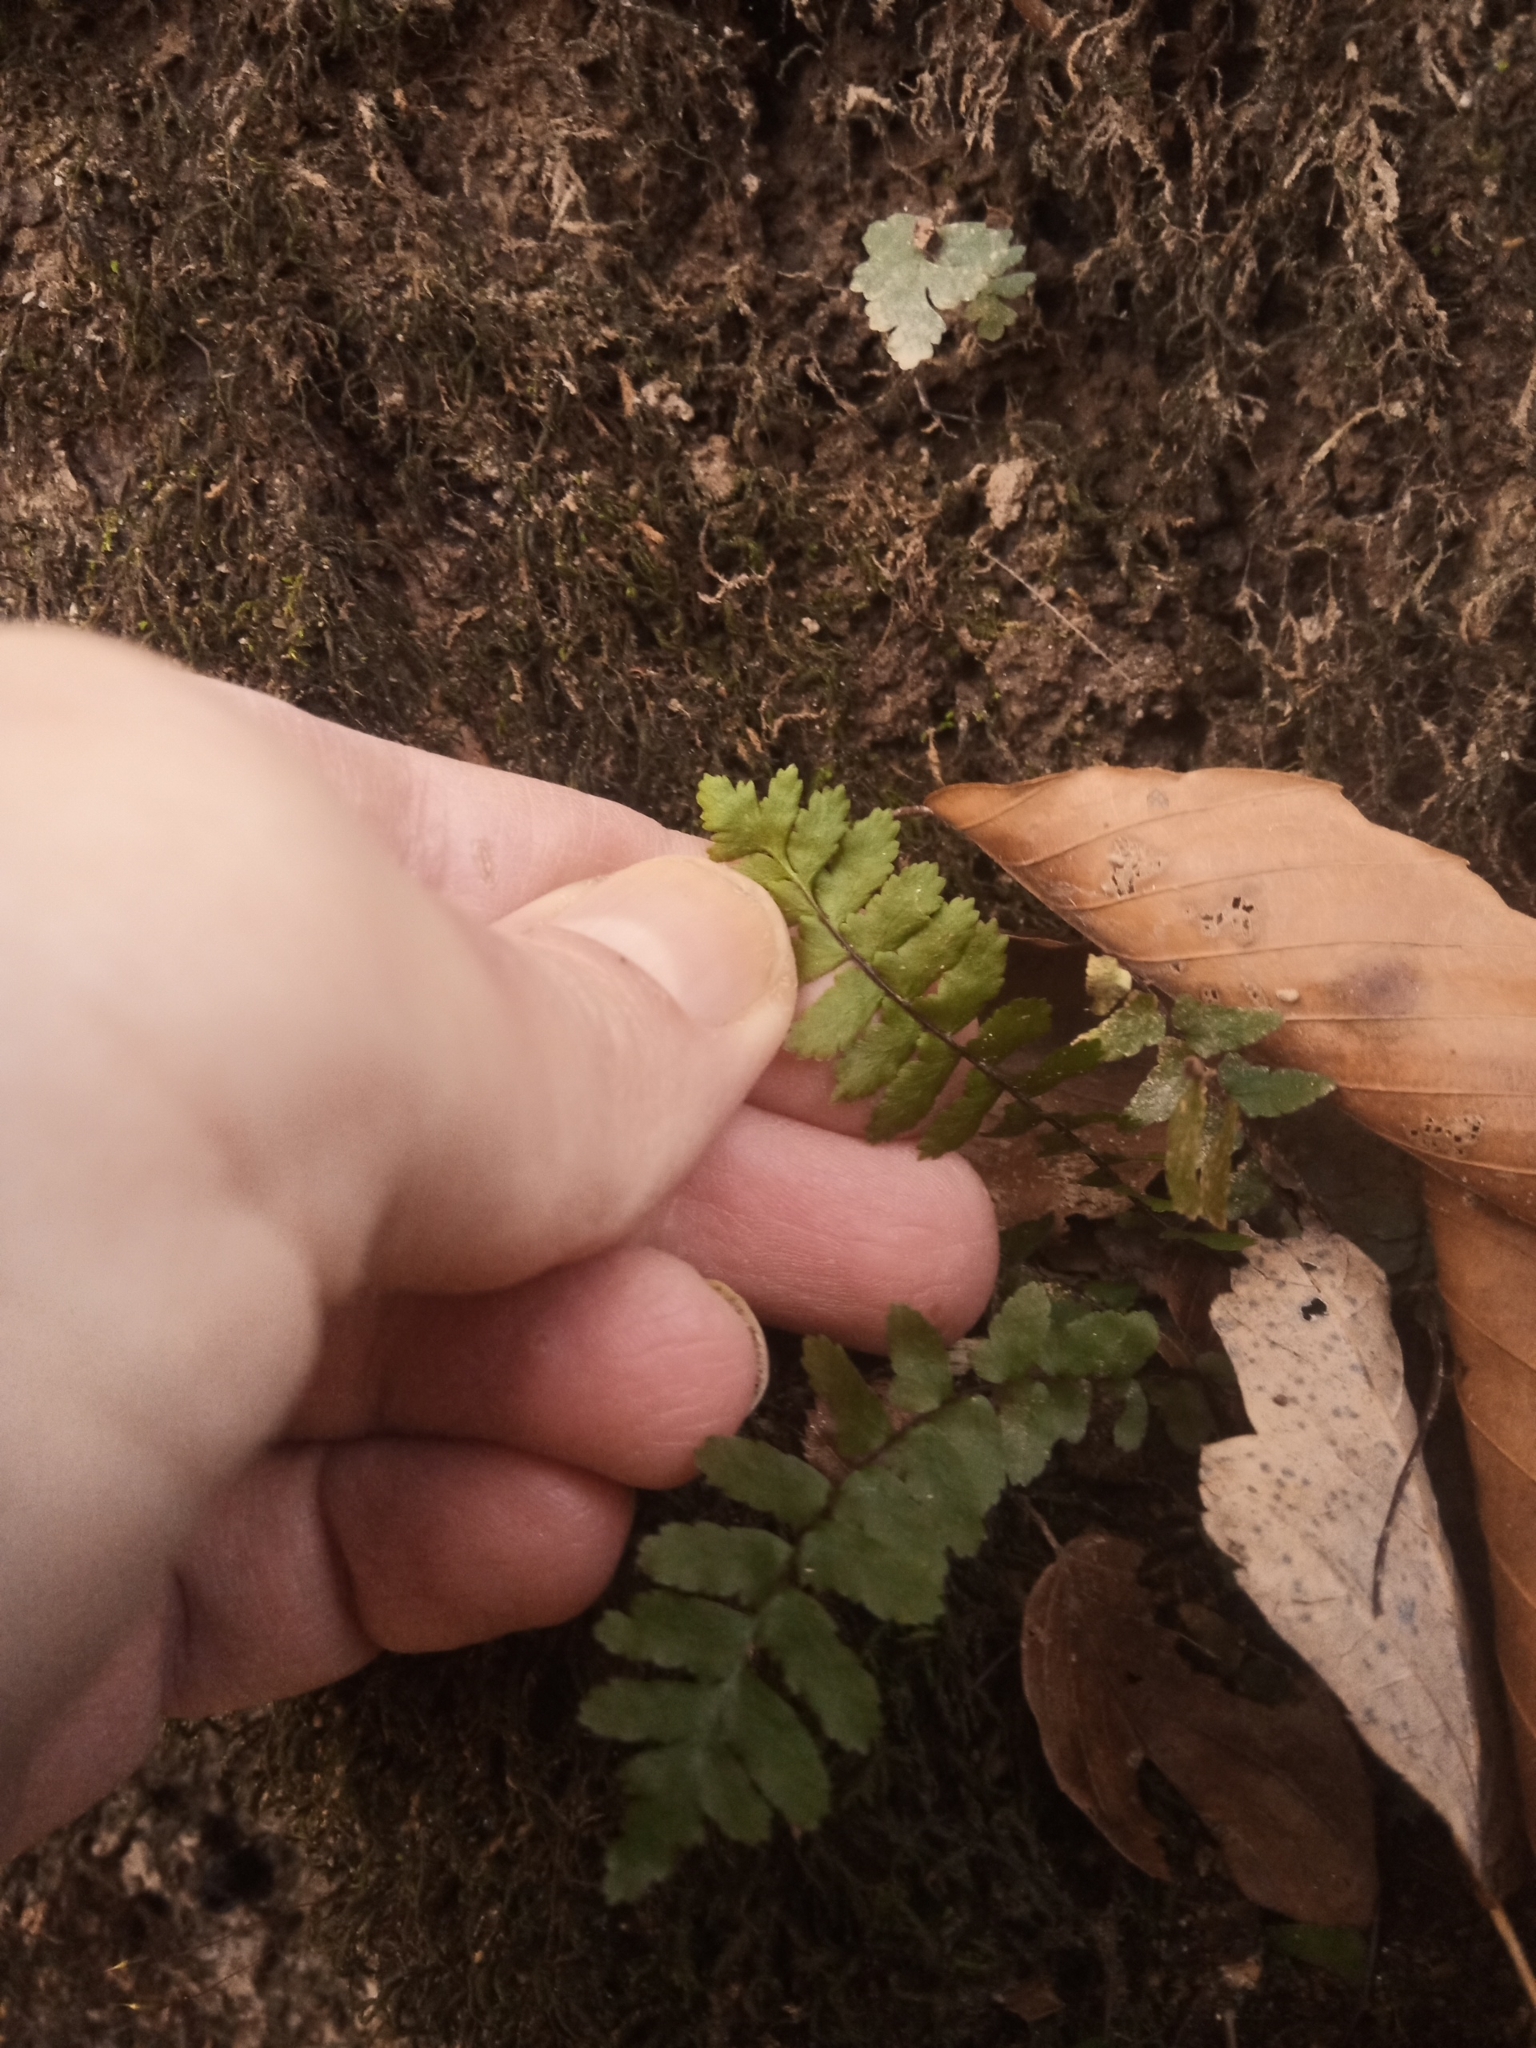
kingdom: Plantae
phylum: Tracheophyta
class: Polypodiopsida
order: Polypodiales
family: Aspleniaceae
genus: Asplenium
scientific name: Asplenium platyneuron
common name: Ebony spleenwort
